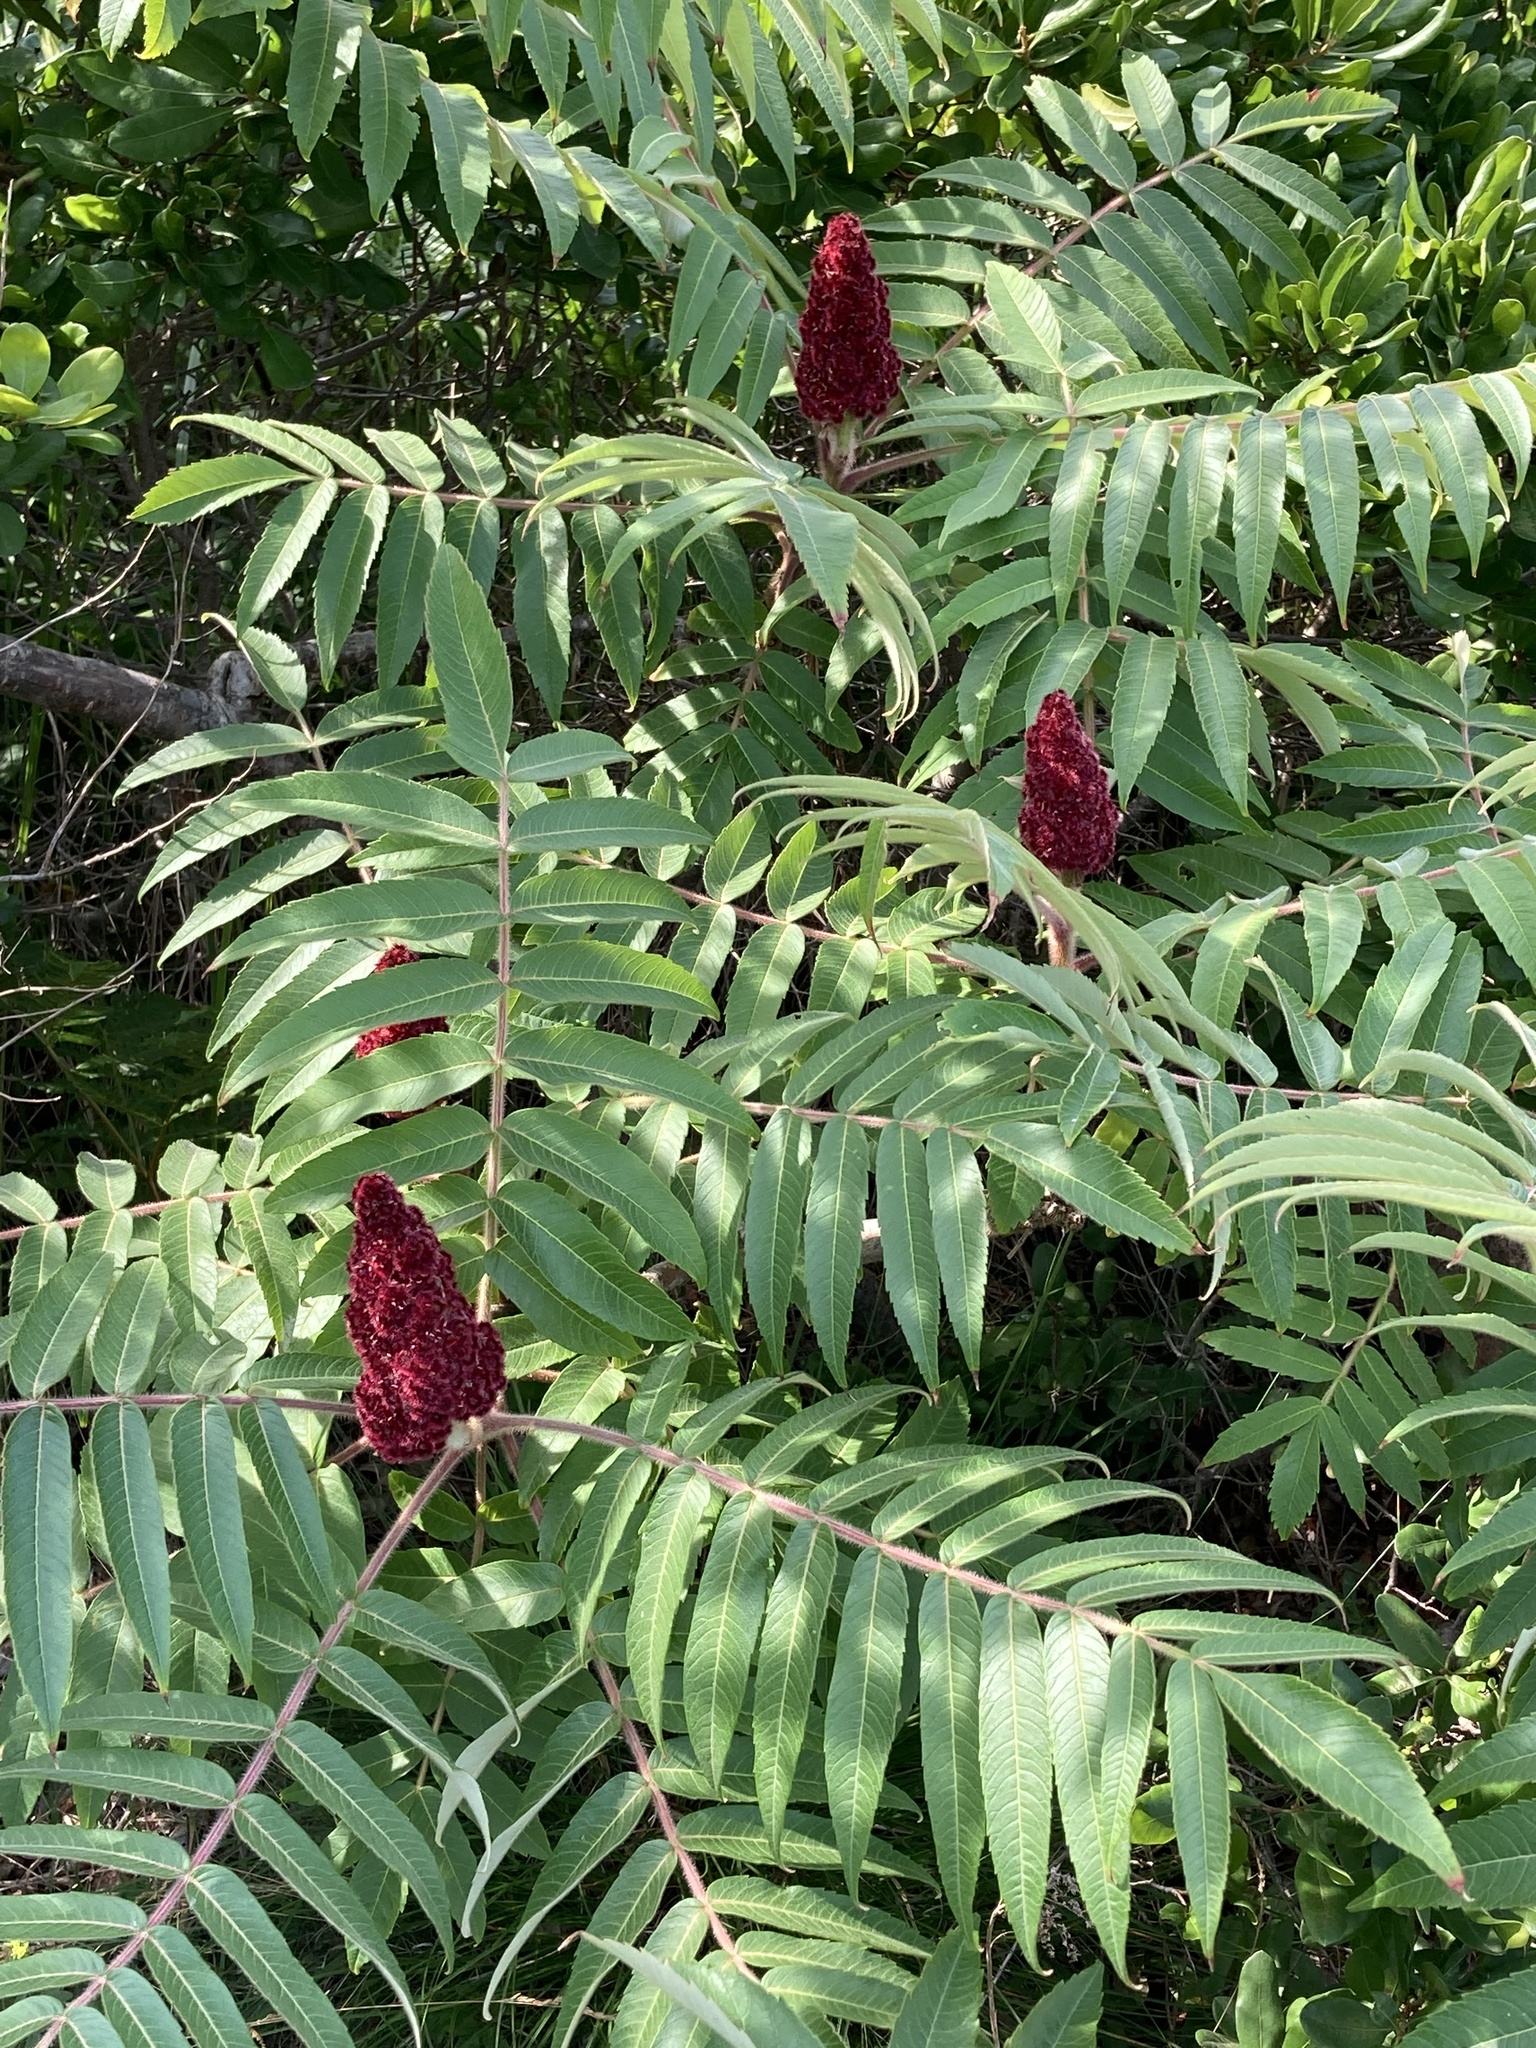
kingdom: Plantae
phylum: Tracheophyta
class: Magnoliopsida
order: Sapindales
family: Anacardiaceae
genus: Rhus
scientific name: Rhus typhina
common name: Staghorn sumac
